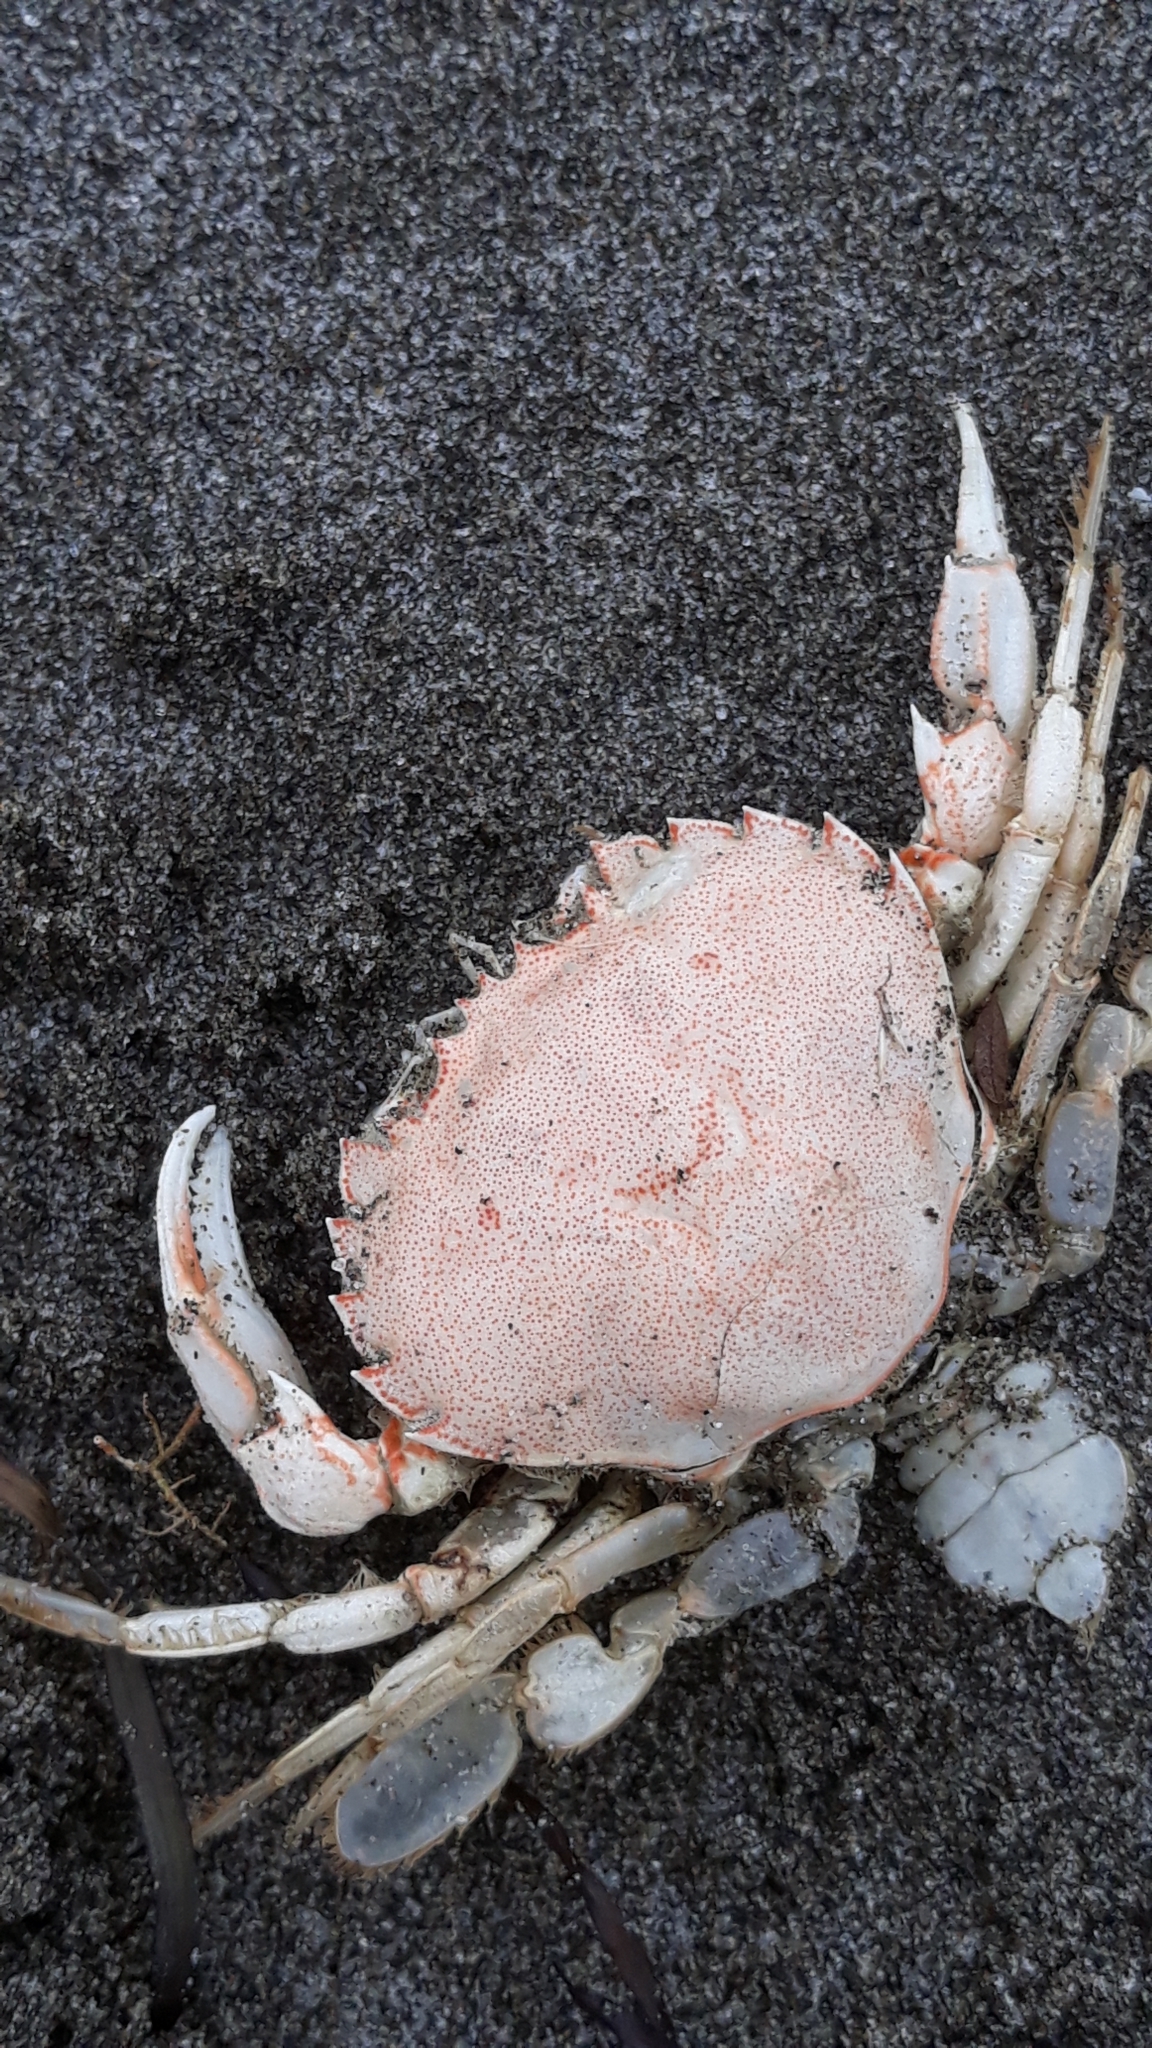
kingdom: Animalia
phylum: Arthropoda
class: Malacostraca
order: Decapoda
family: Ovalipidae
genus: Ovalipes
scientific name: Ovalipes catharus
